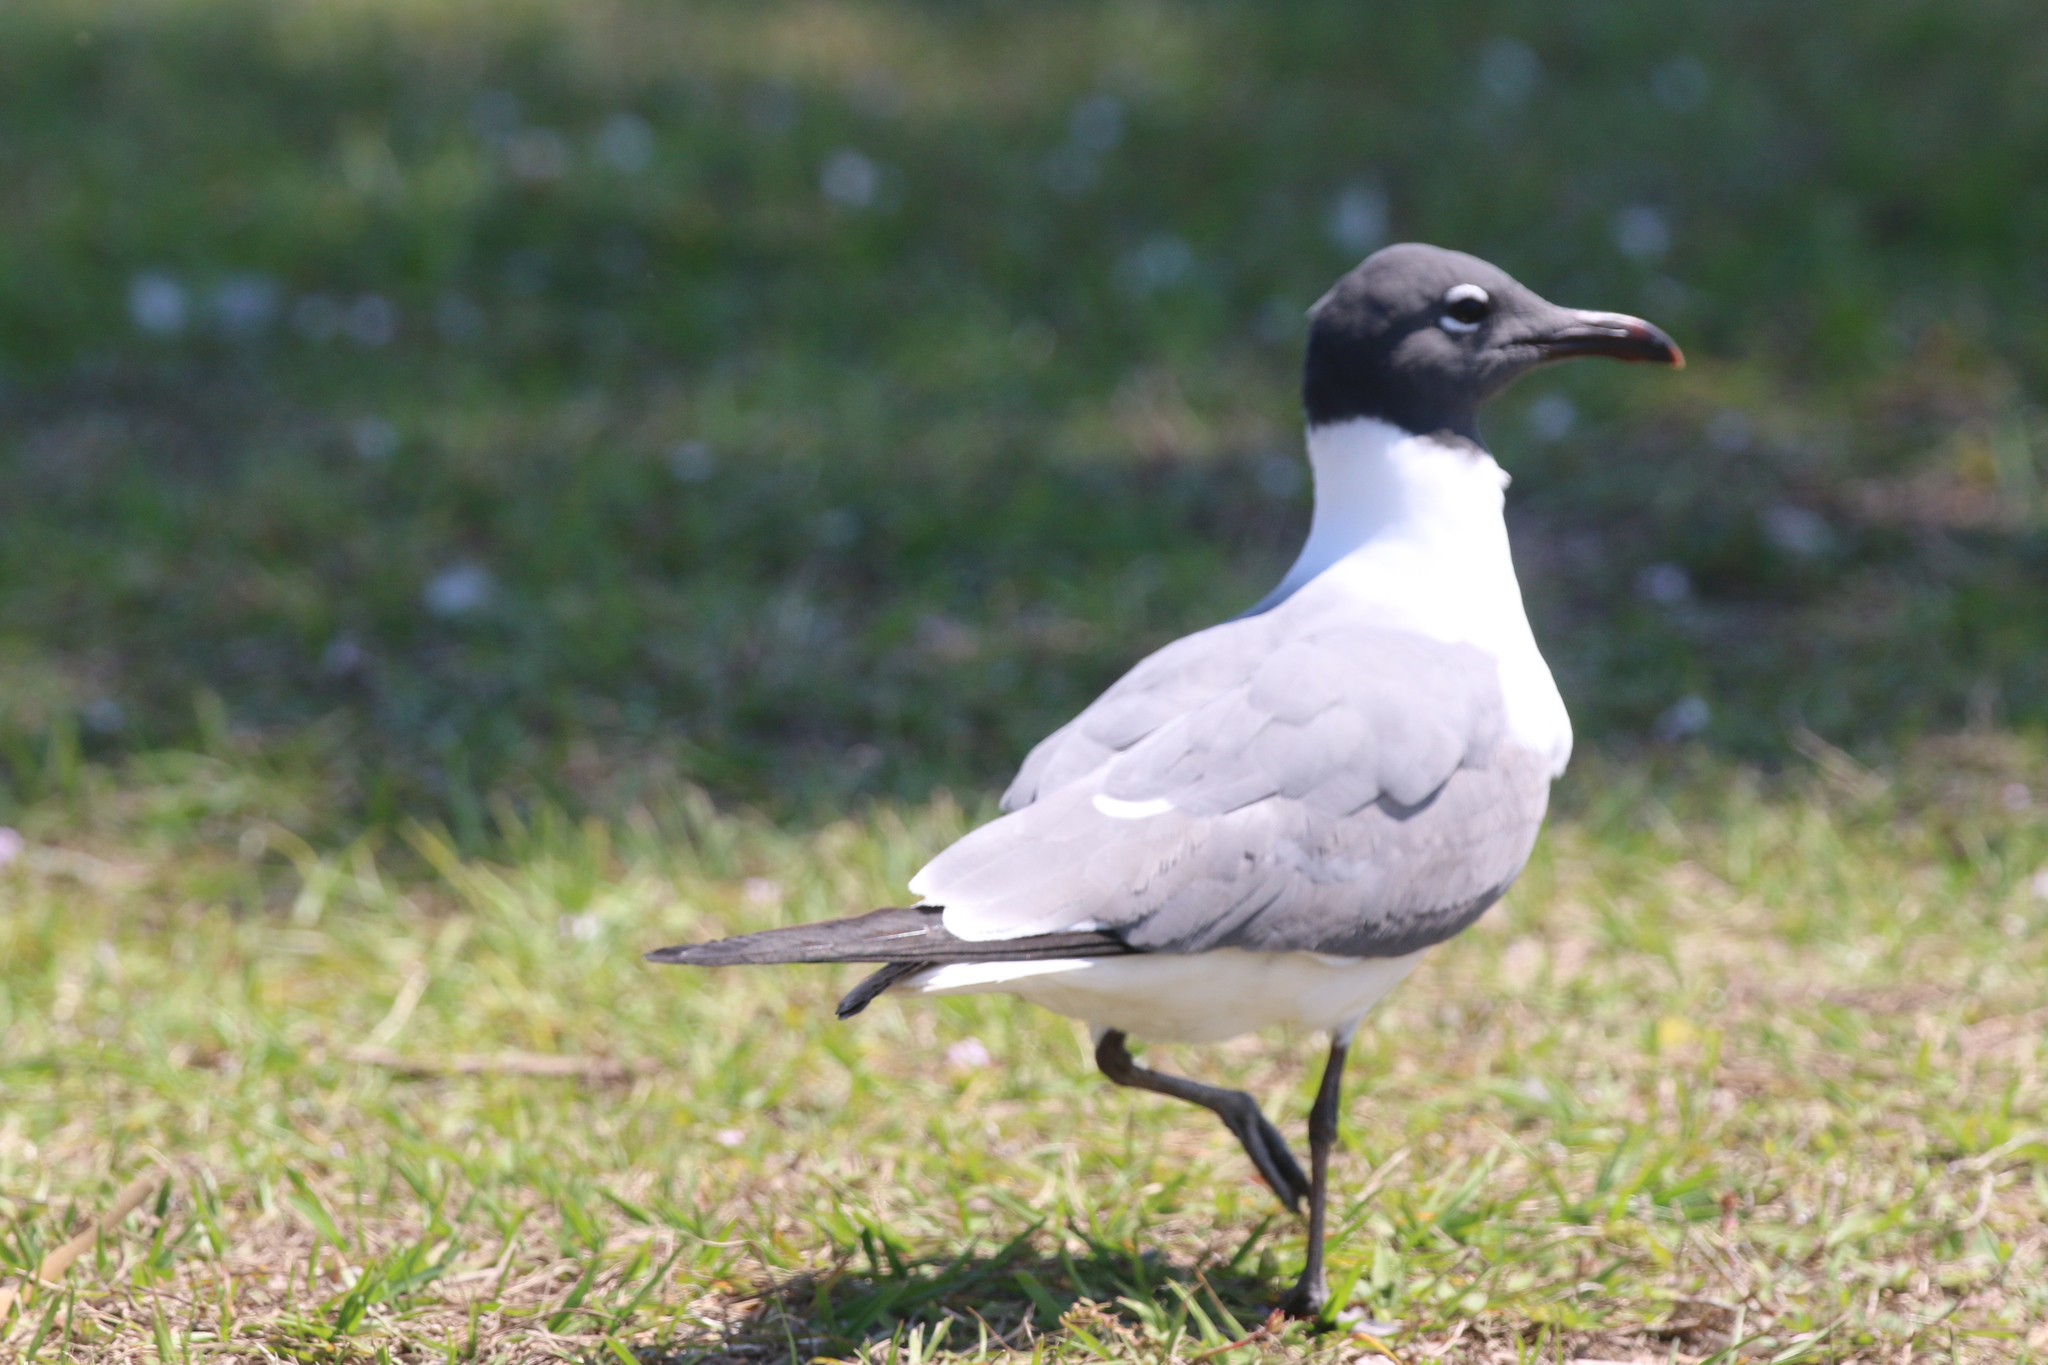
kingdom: Animalia
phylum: Chordata
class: Aves
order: Charadriiformes
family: Laridae
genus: Leucophaeus
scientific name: Leucophaeus atricilla
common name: Laughing gull
